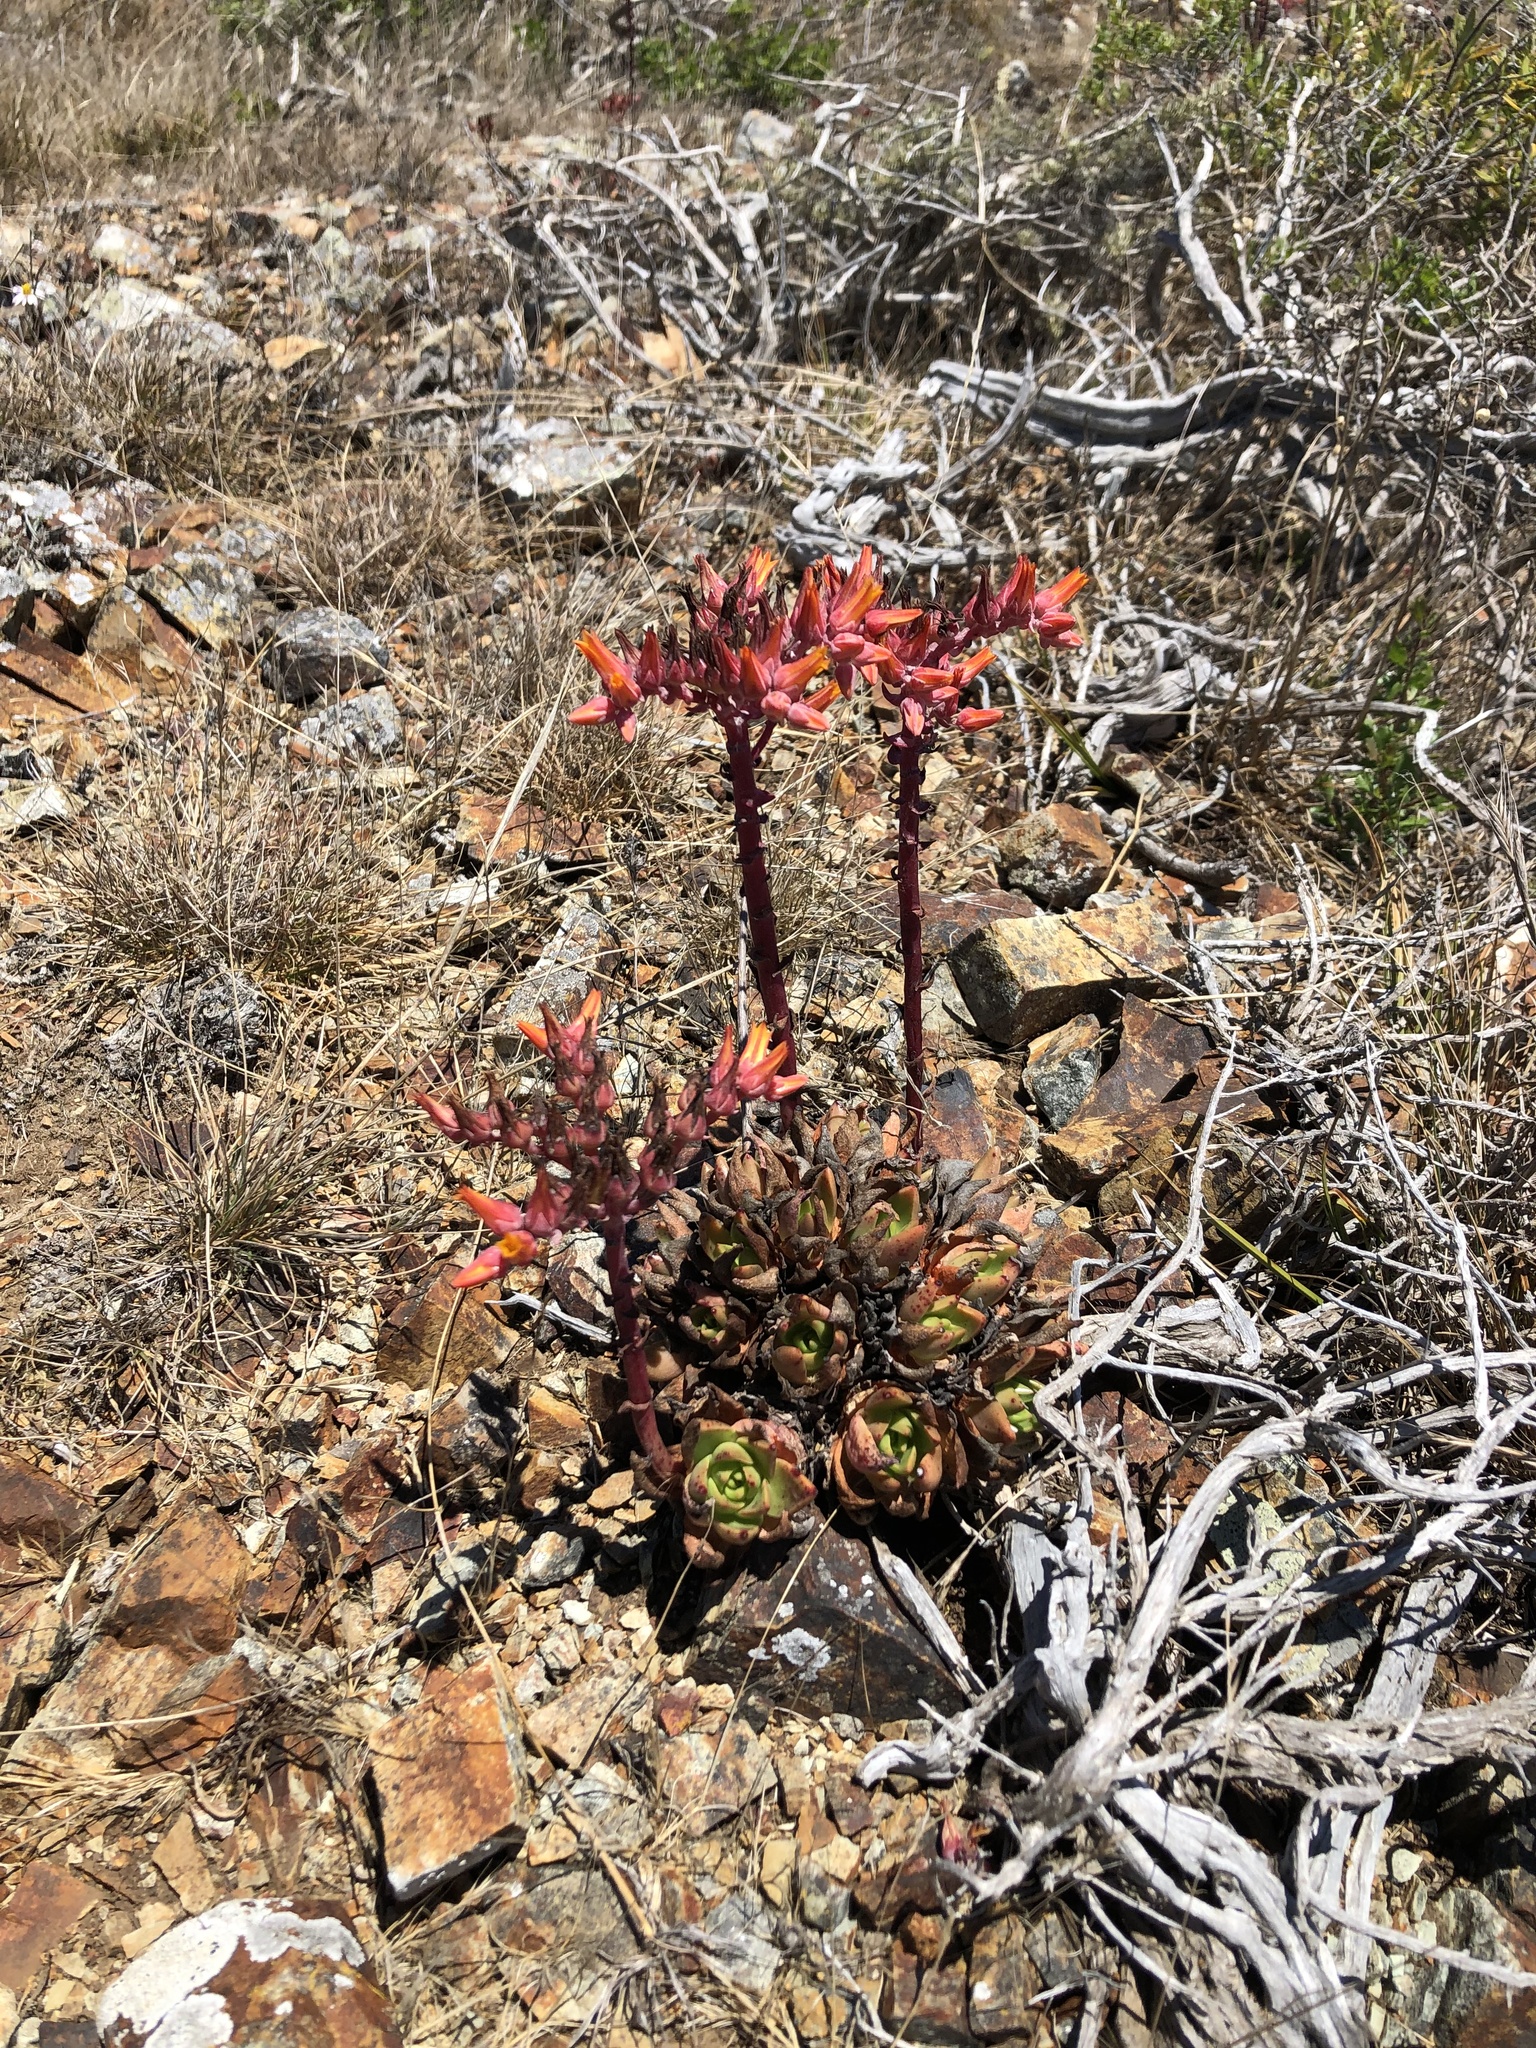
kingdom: Plantae
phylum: Tracheophyta
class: Magnoliopsida
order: Saxifragales
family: Crassulaceae
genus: Dudleya
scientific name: Dudleya palmeri
